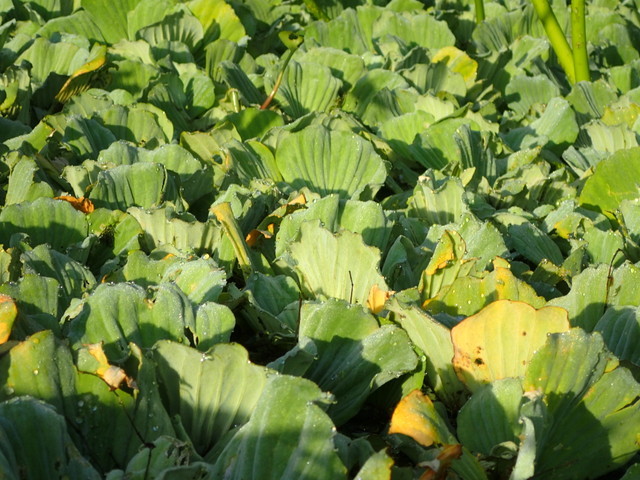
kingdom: Plantae
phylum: Tracheophyta
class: Liliopsida
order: Alismatales
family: Araceae
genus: Pistia
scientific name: Pistia stratiotes
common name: Water lettuce
